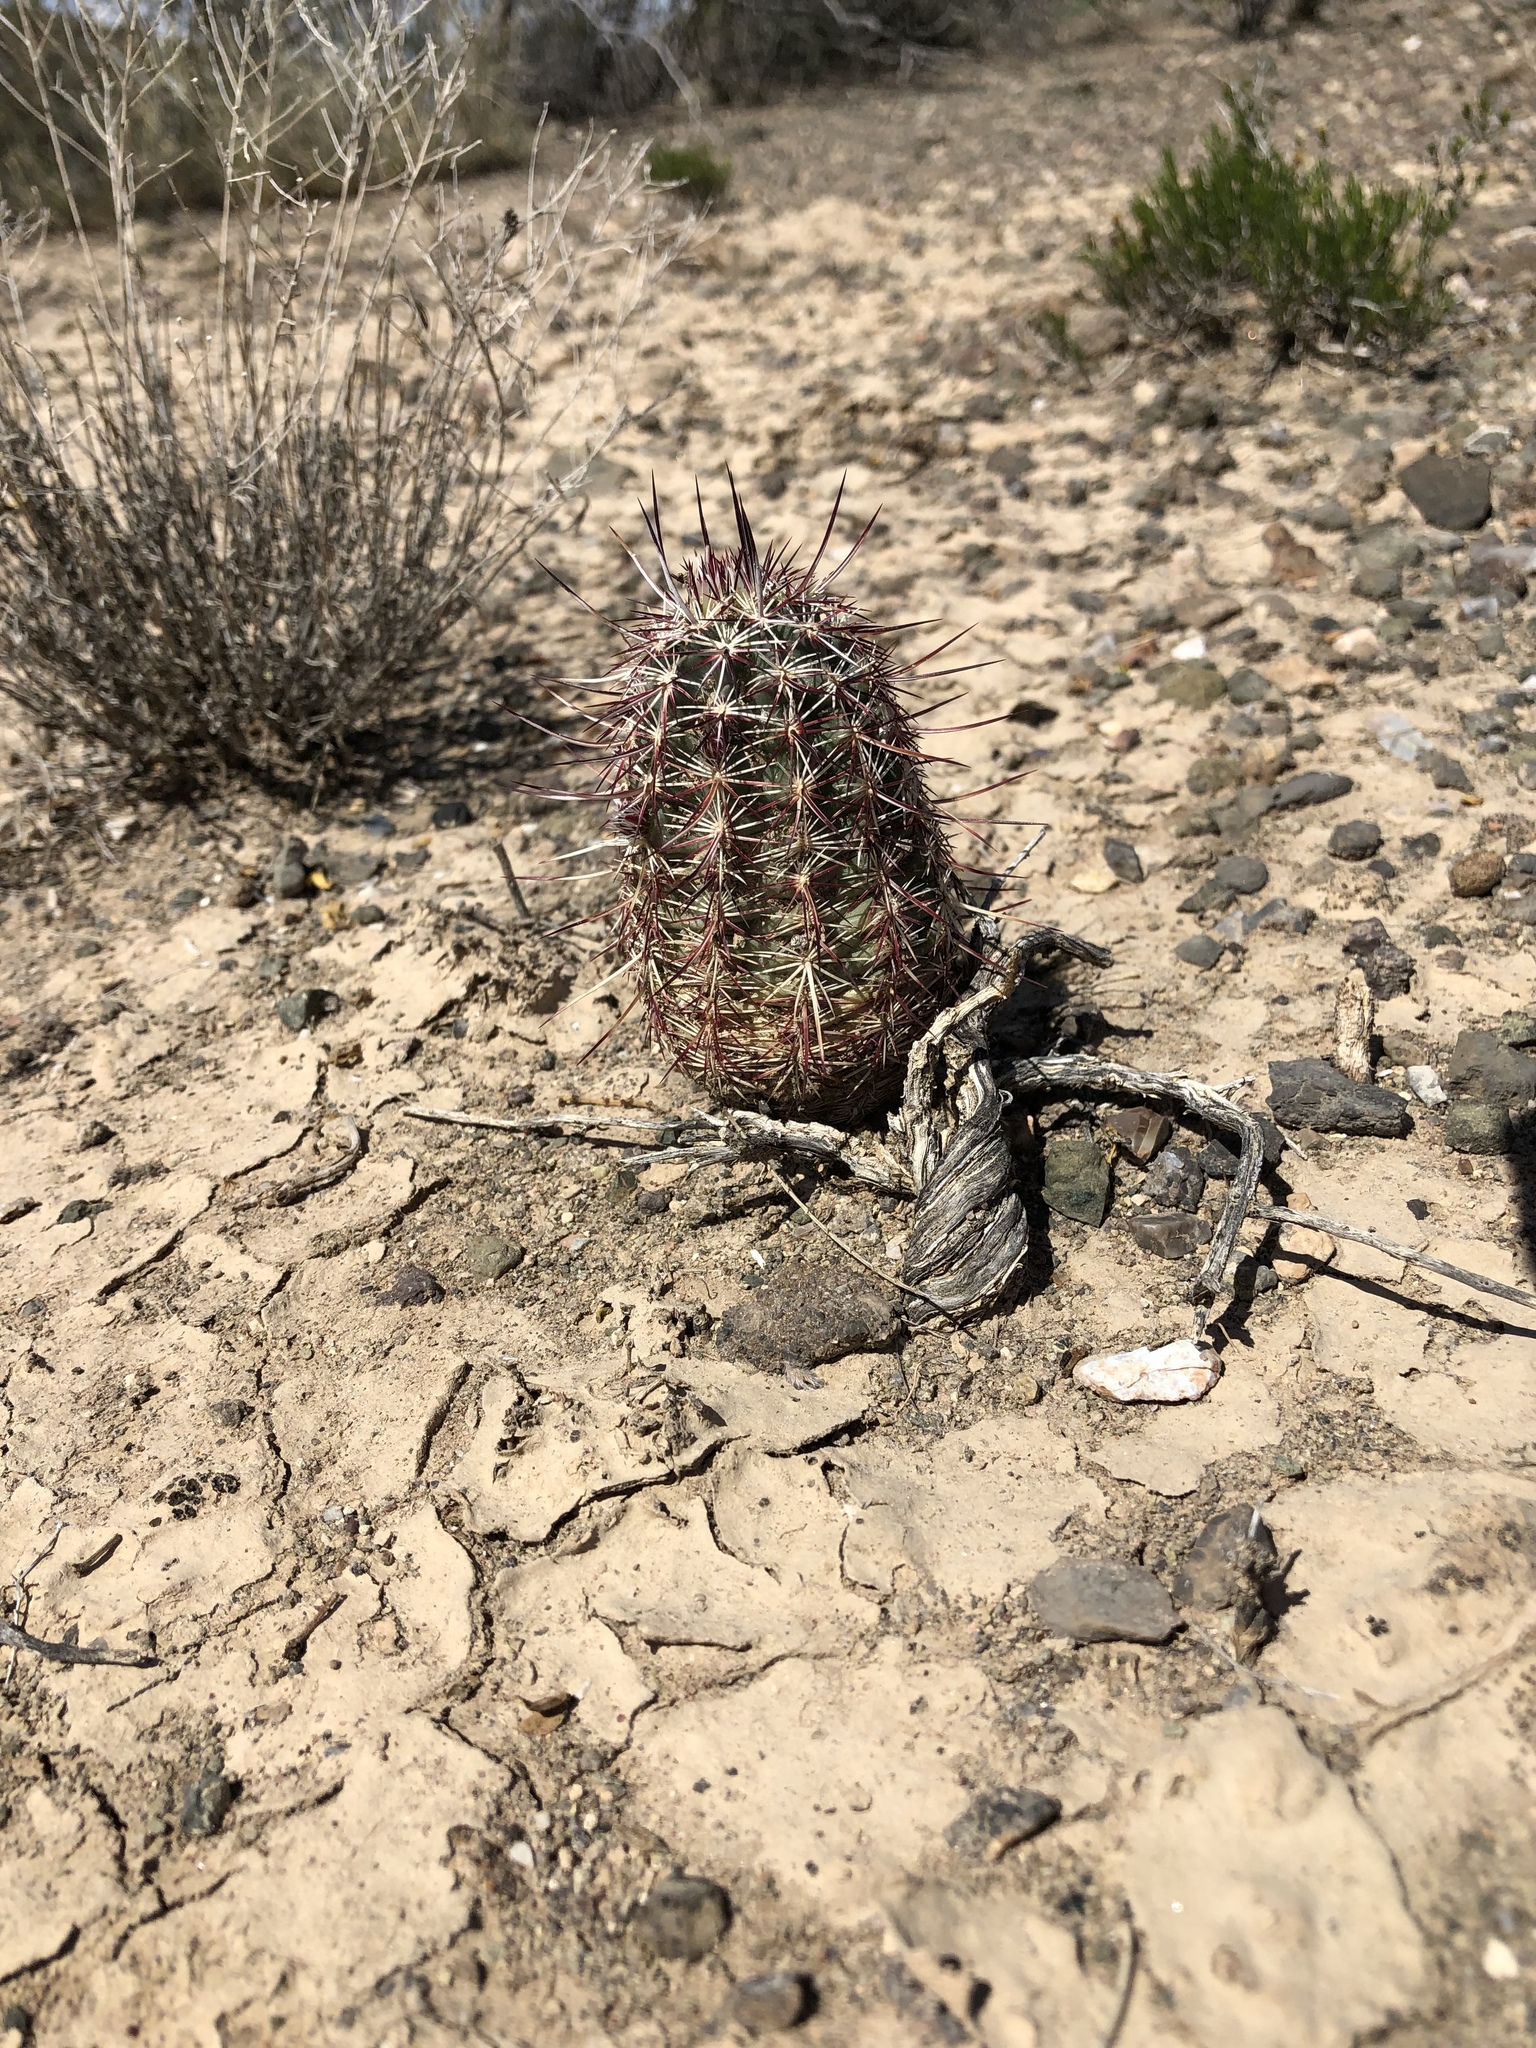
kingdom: Plantae
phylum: Tracheophyta
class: Magnoliopsida
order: Caryophyllales
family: Cactaceae
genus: Echinocereus
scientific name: Echinocereus viridiflorus
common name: Nylon hedgehog cactus
